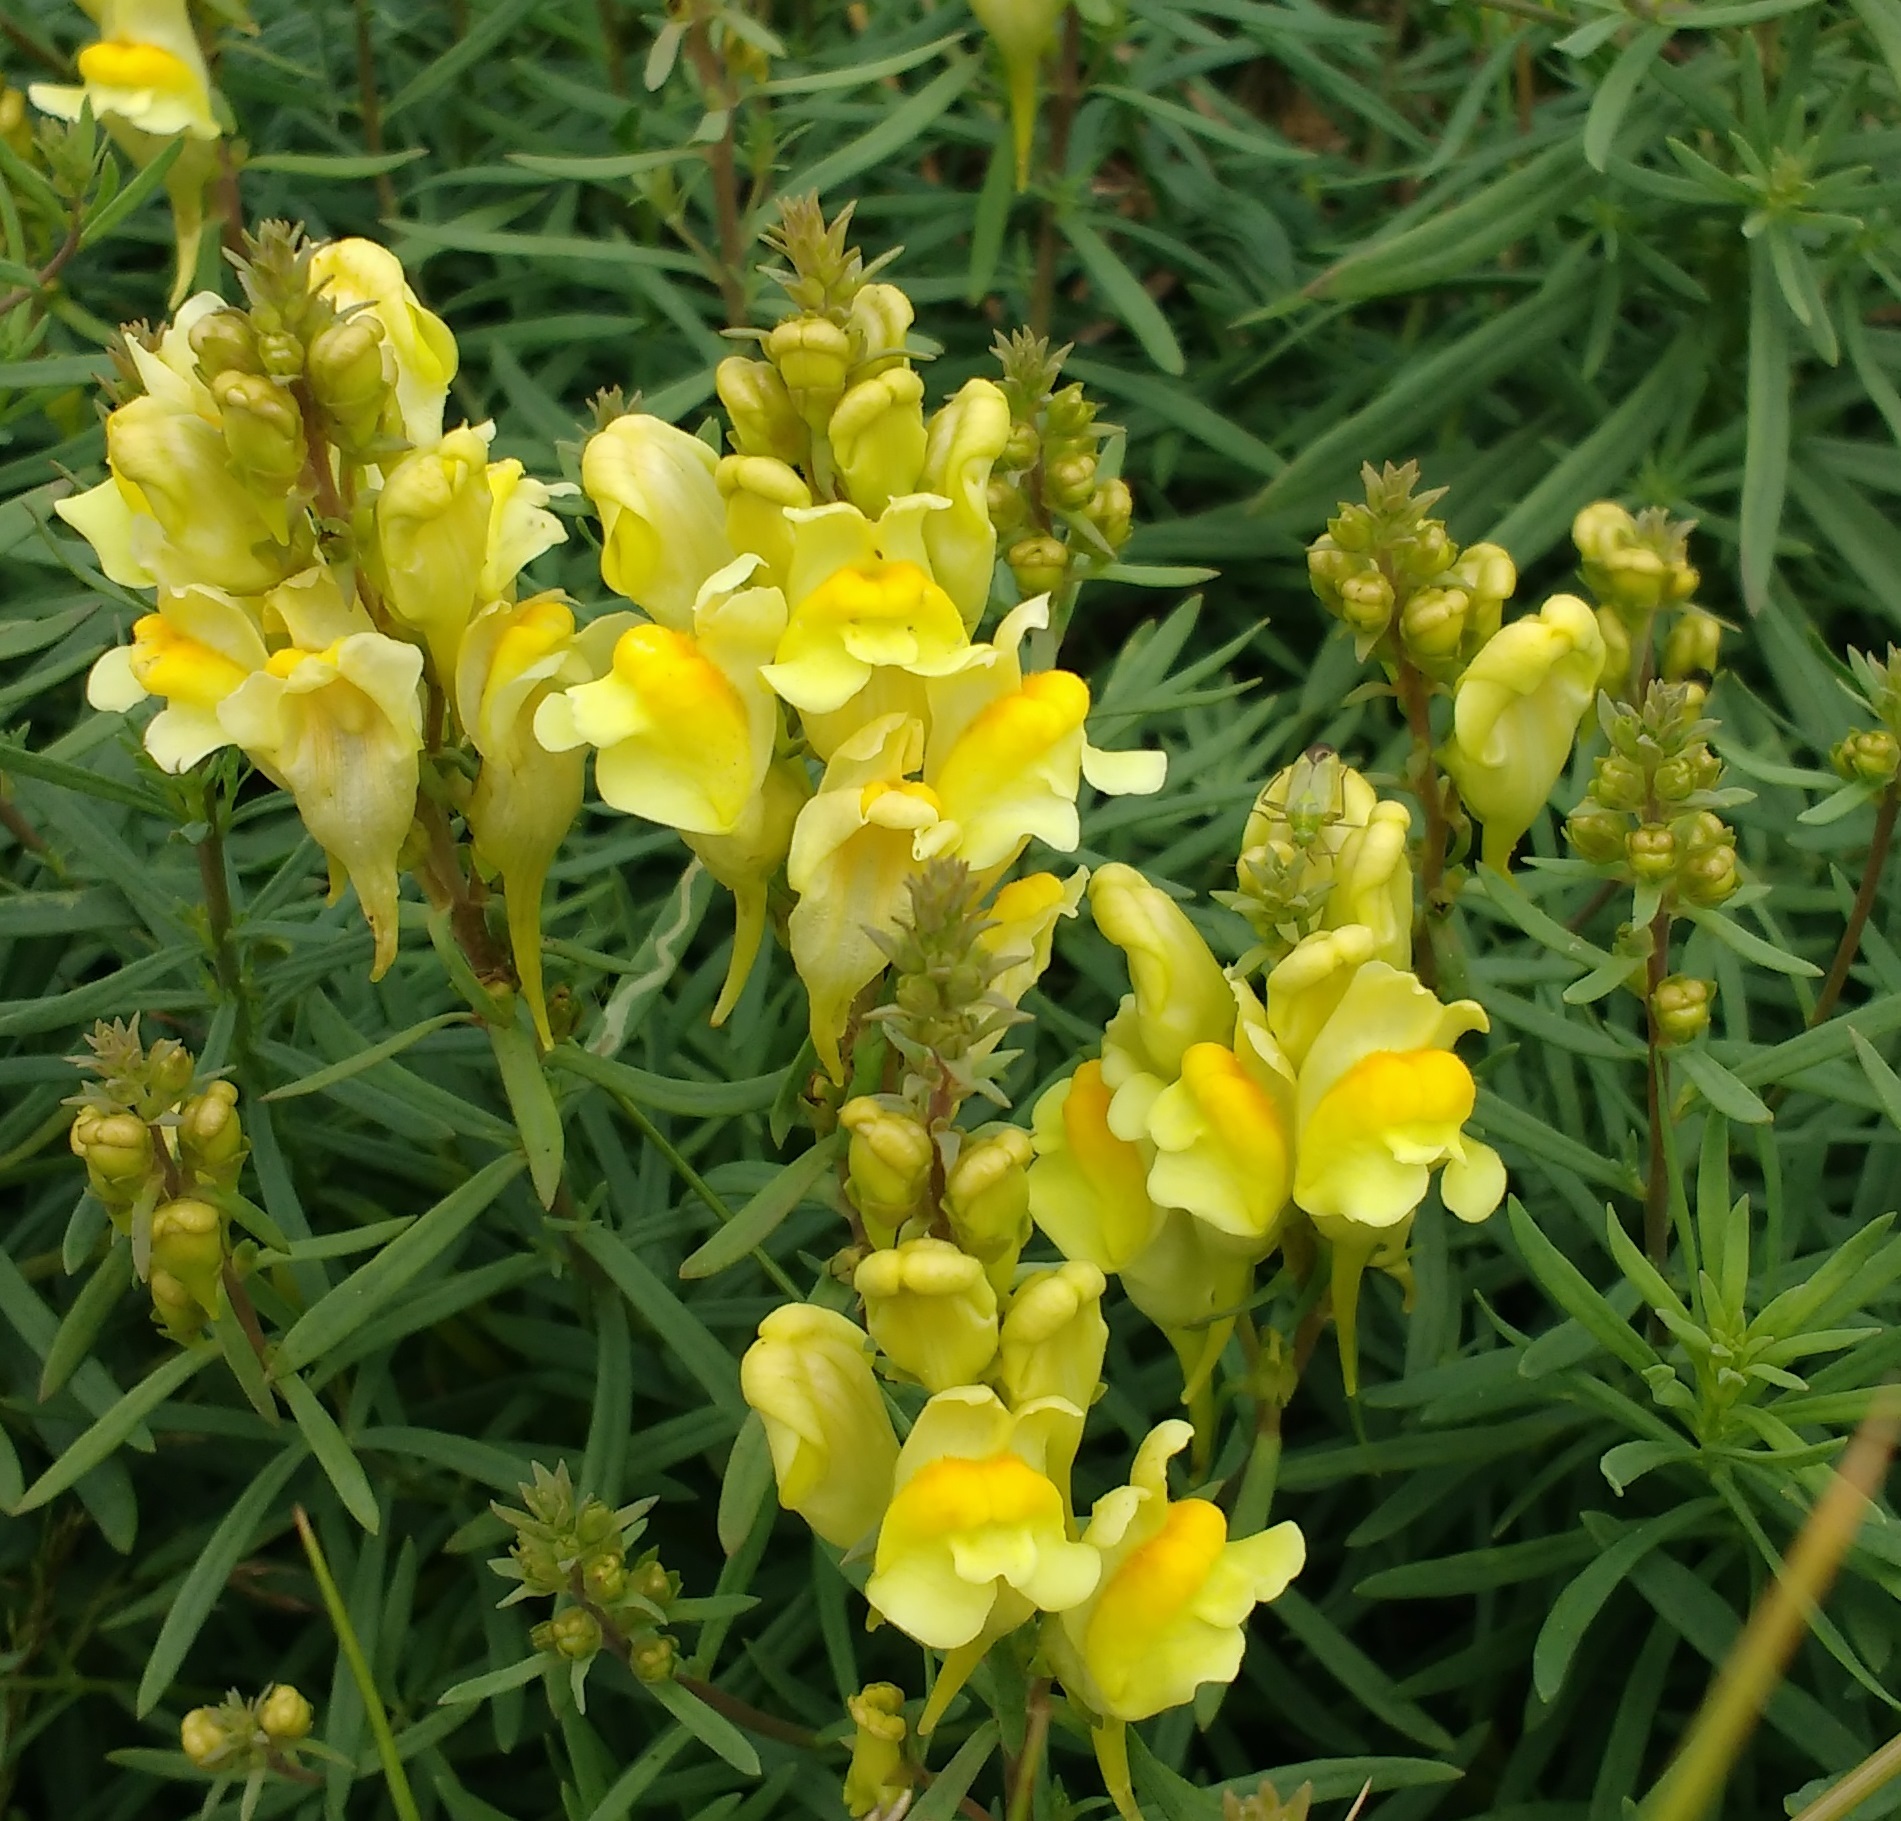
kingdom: Plantae
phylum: Tracheophyta
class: Magnoliopsida
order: Lamiales
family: Plantaginaceae
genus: Linaria
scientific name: Linaria vulgaris
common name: Butter and eggs
